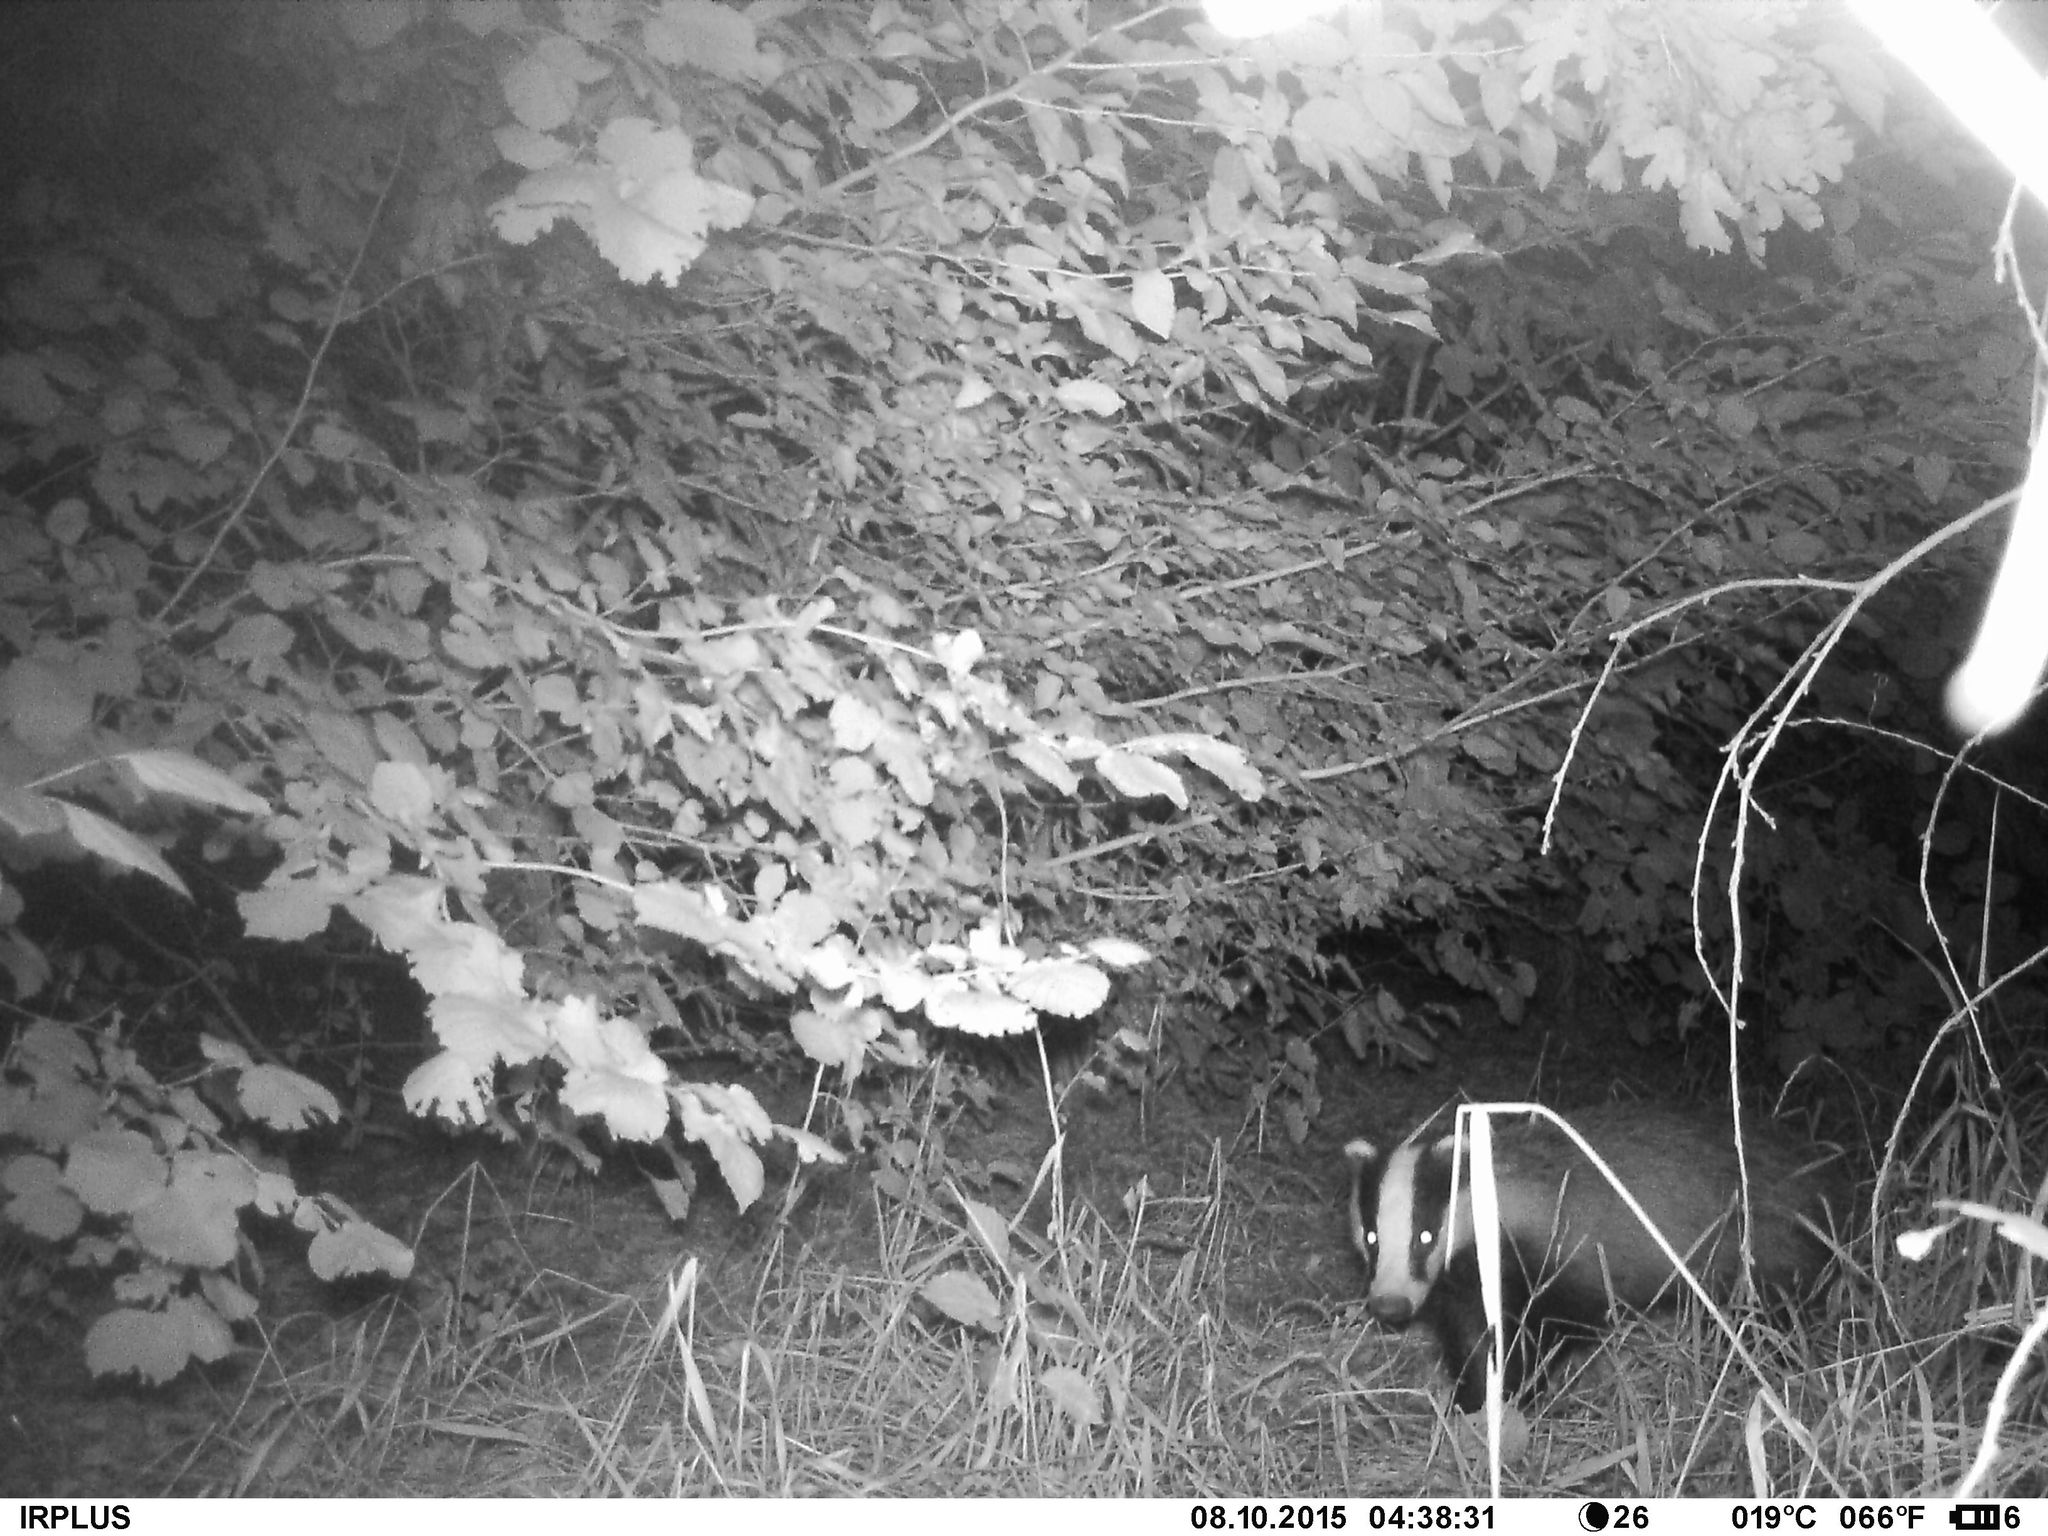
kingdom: Animalia
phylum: Chordata
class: Mammalia
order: Carnivora
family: Mustelidae
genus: Meles
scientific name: Meles meles
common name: Eurasian badger
